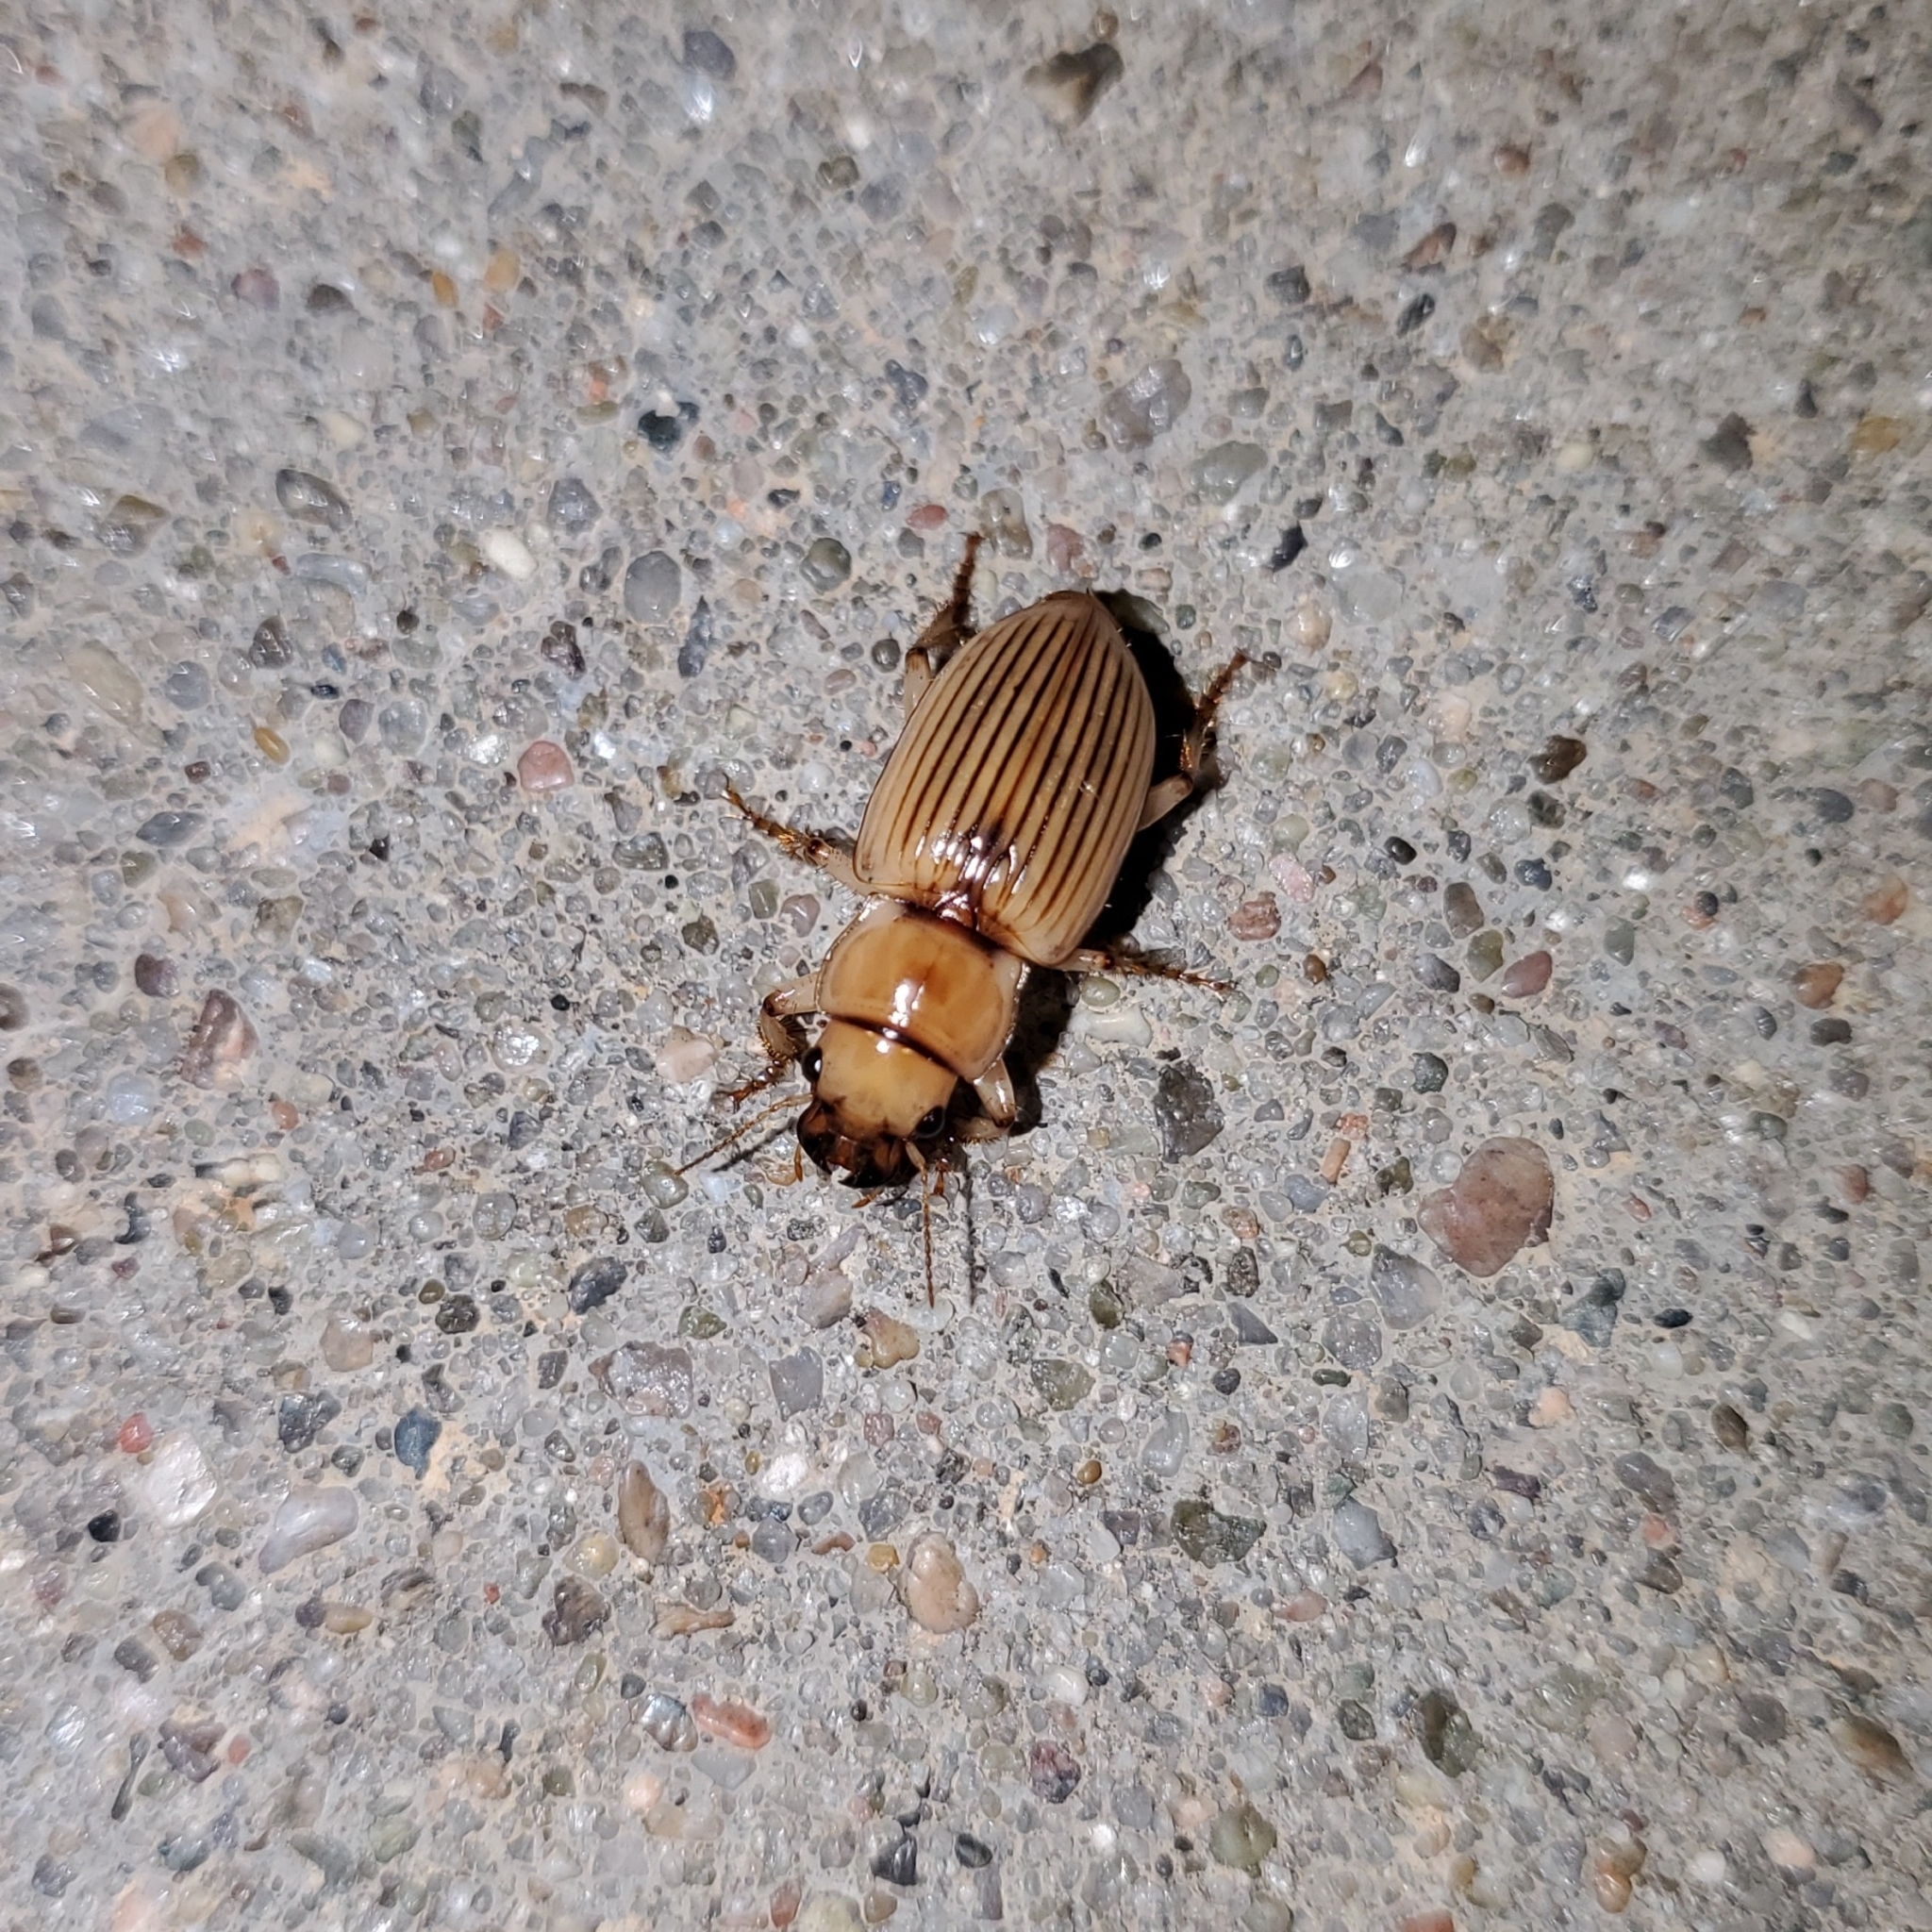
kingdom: Animalia
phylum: Arthropoda
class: Insecta
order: Coleoptera
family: Carabidae
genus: Geopinus
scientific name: Geopinus incrassatus
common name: Homely geopinus
